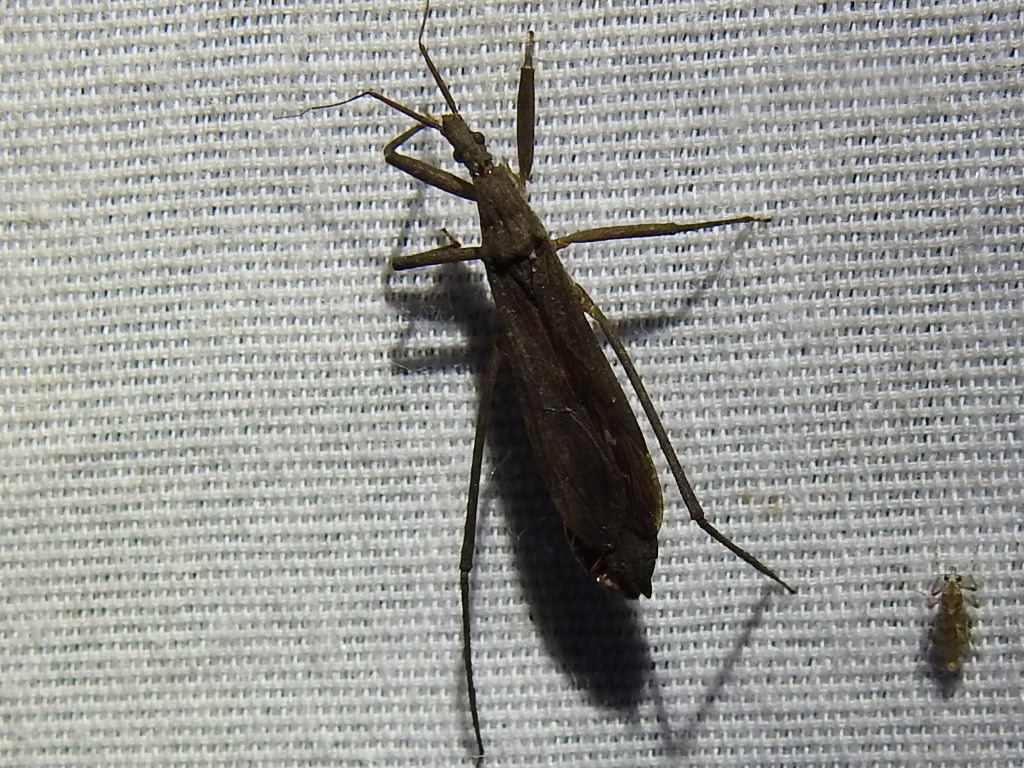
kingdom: Animalia
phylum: Arthropoda
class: Insecta
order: Hemiptera
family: Reduviidae
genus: Pygolampis
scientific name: Pygolampis pectoralis
